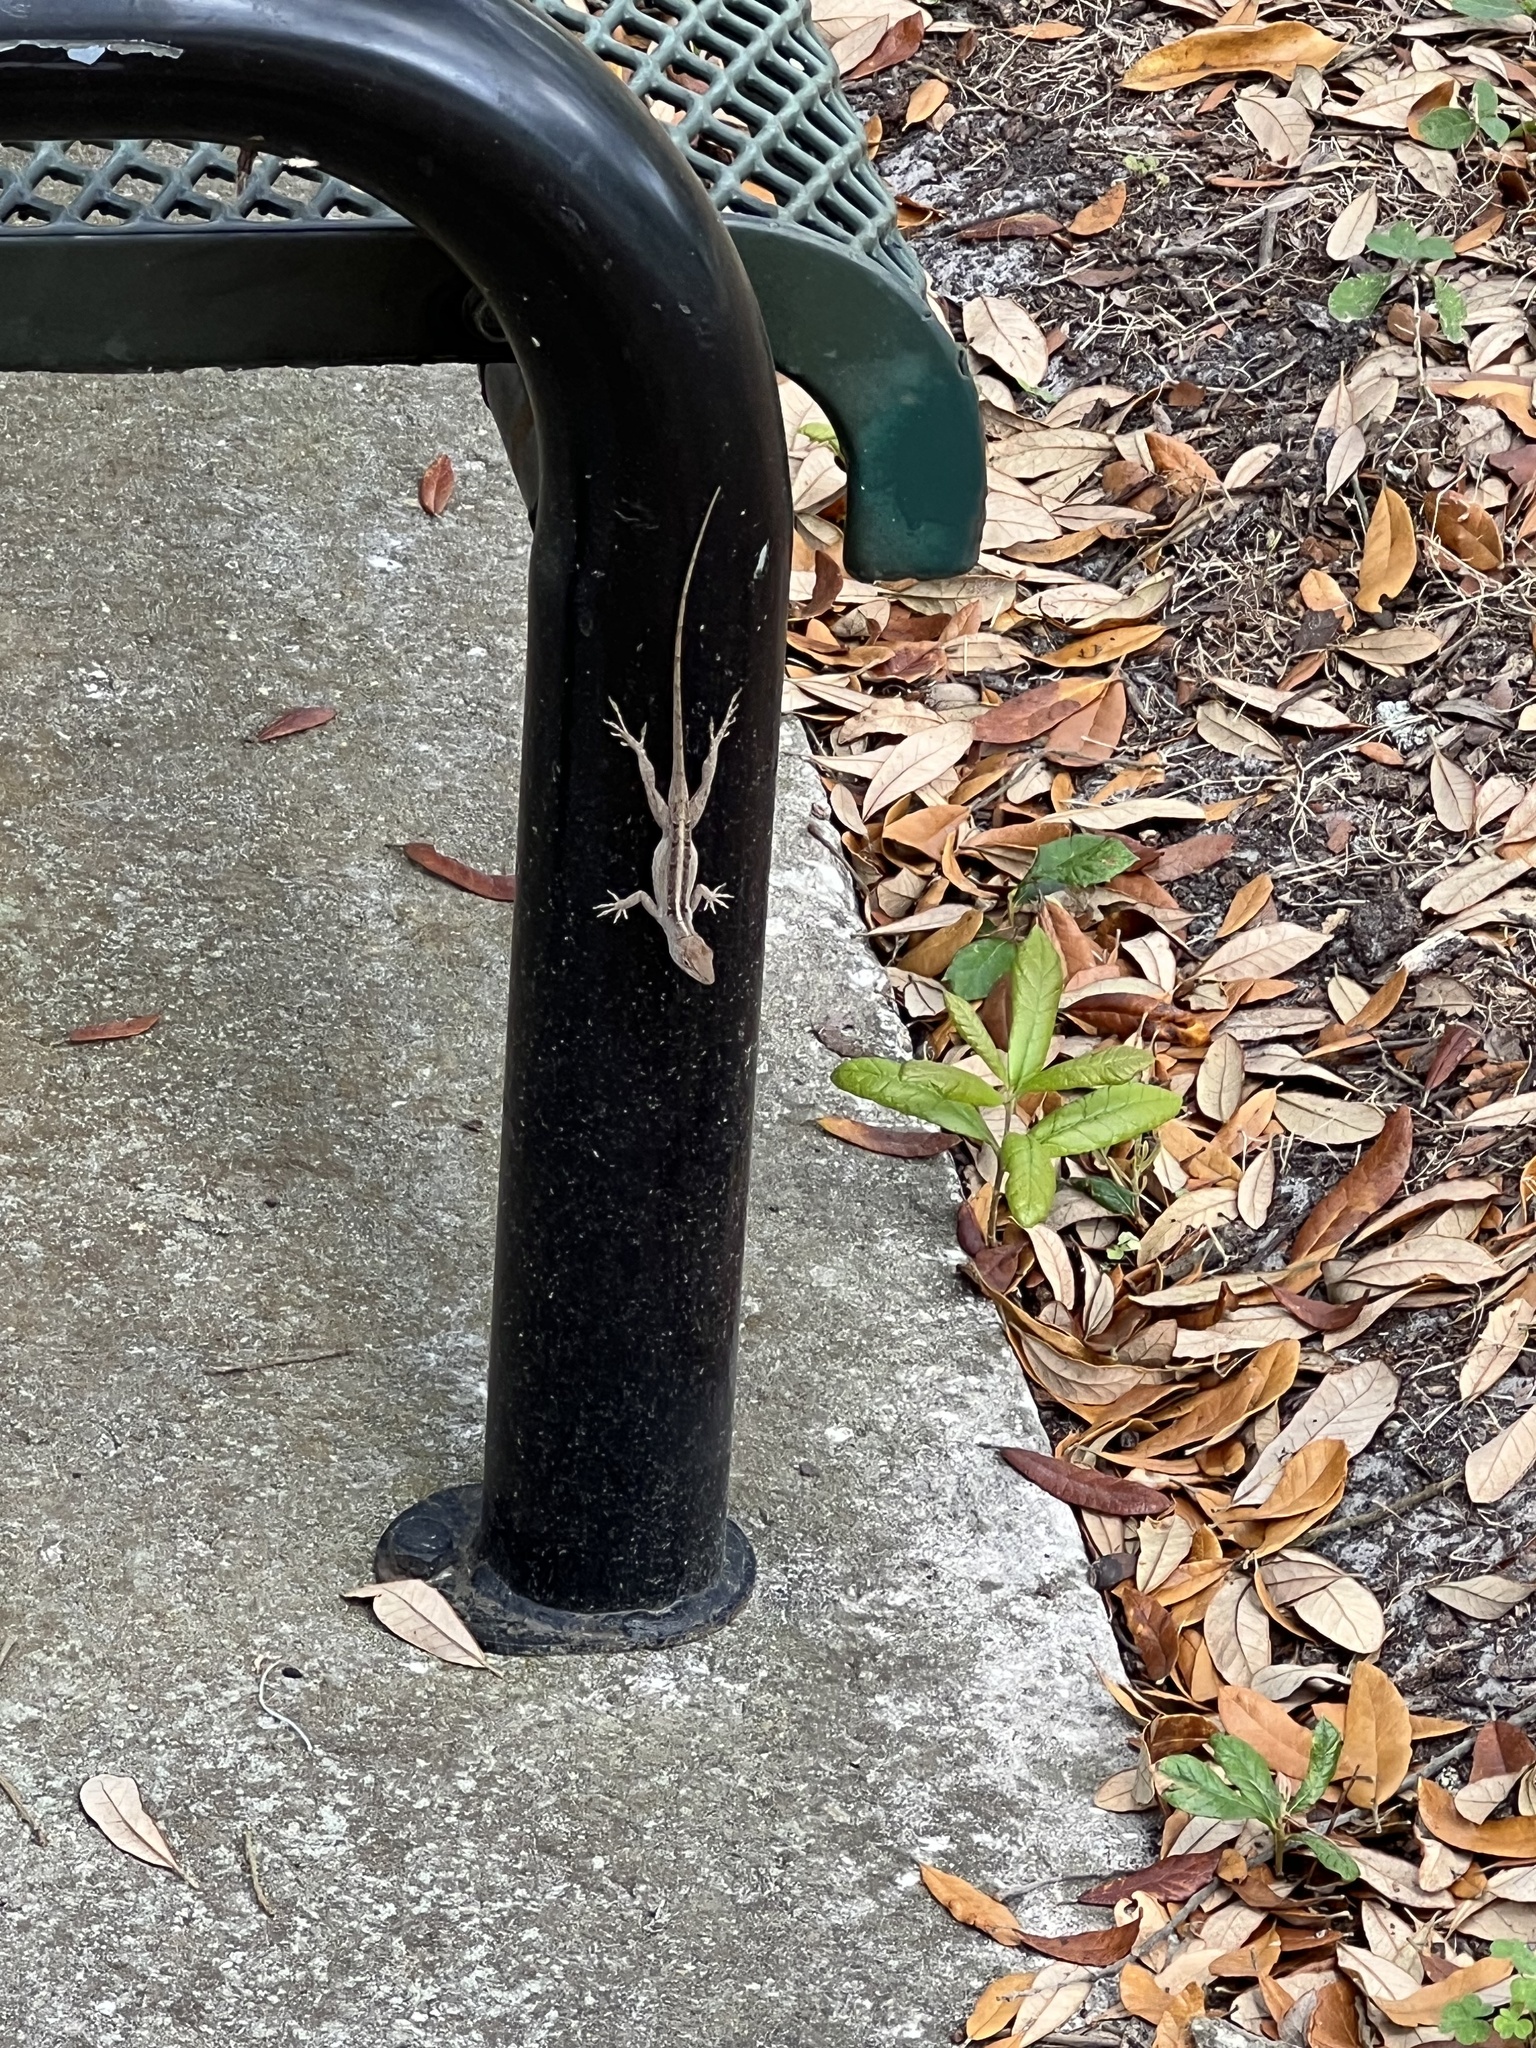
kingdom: Animalia
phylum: Chordata
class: Squamata
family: Dactyloidae
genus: Anolis
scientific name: Anolis sagrei
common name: Brown anole
